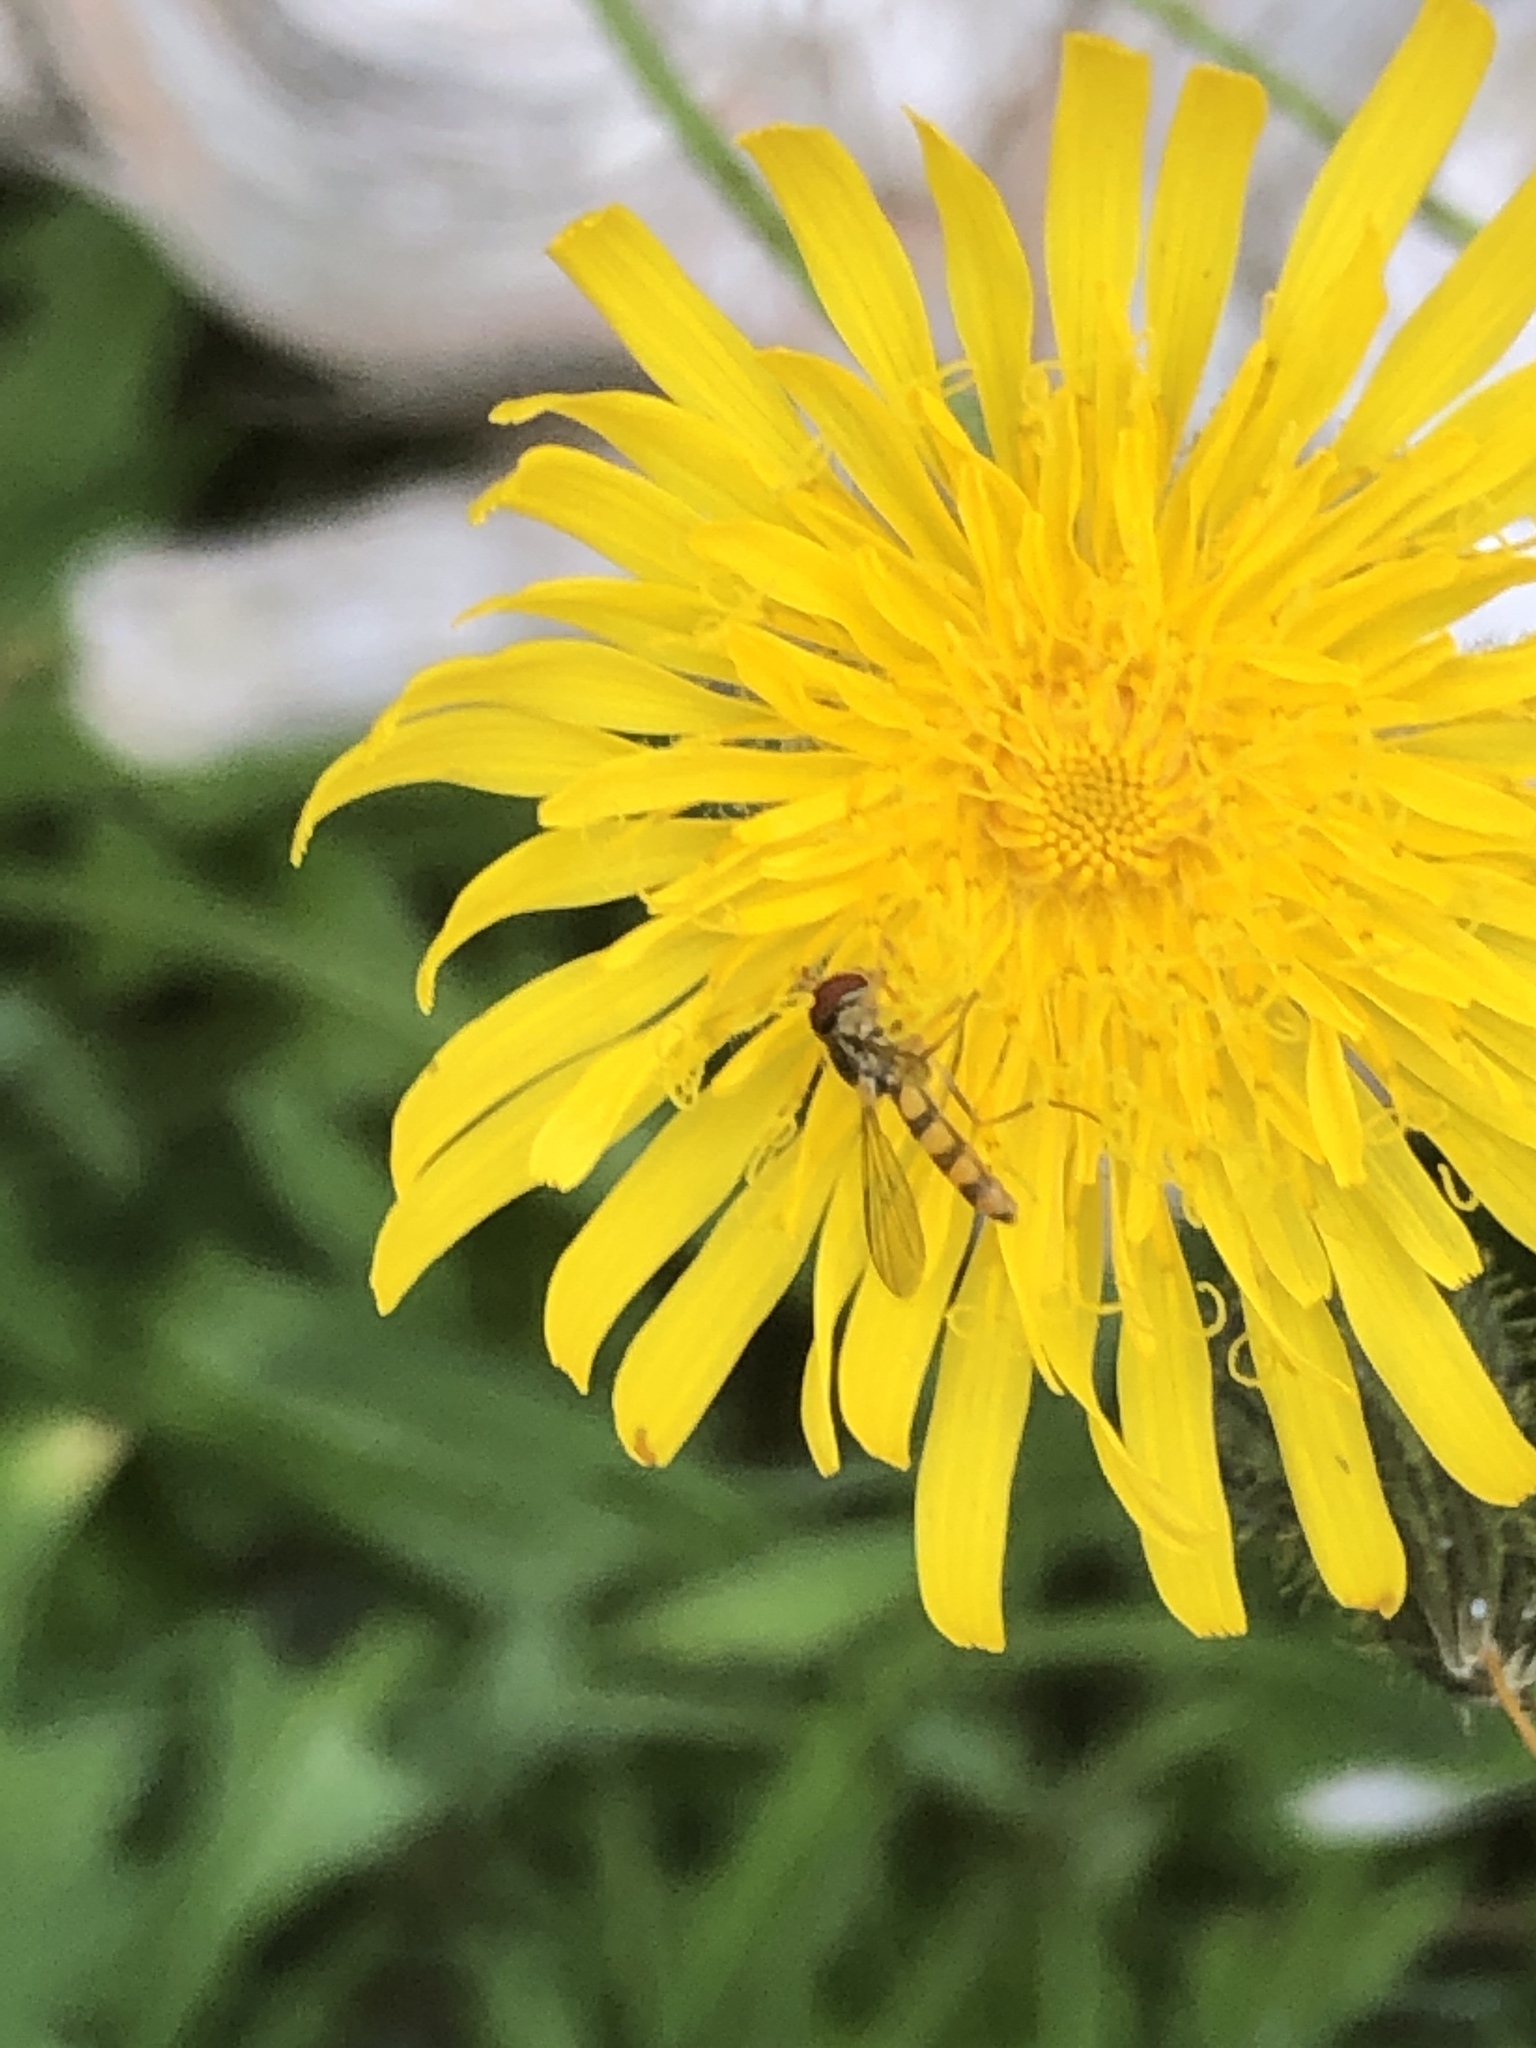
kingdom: Animalia
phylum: Arthropoda
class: Insecta
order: Diptera
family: Syrphidae
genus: Meliscaeva
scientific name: Meliscaeva cinctella
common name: American thintail fly
